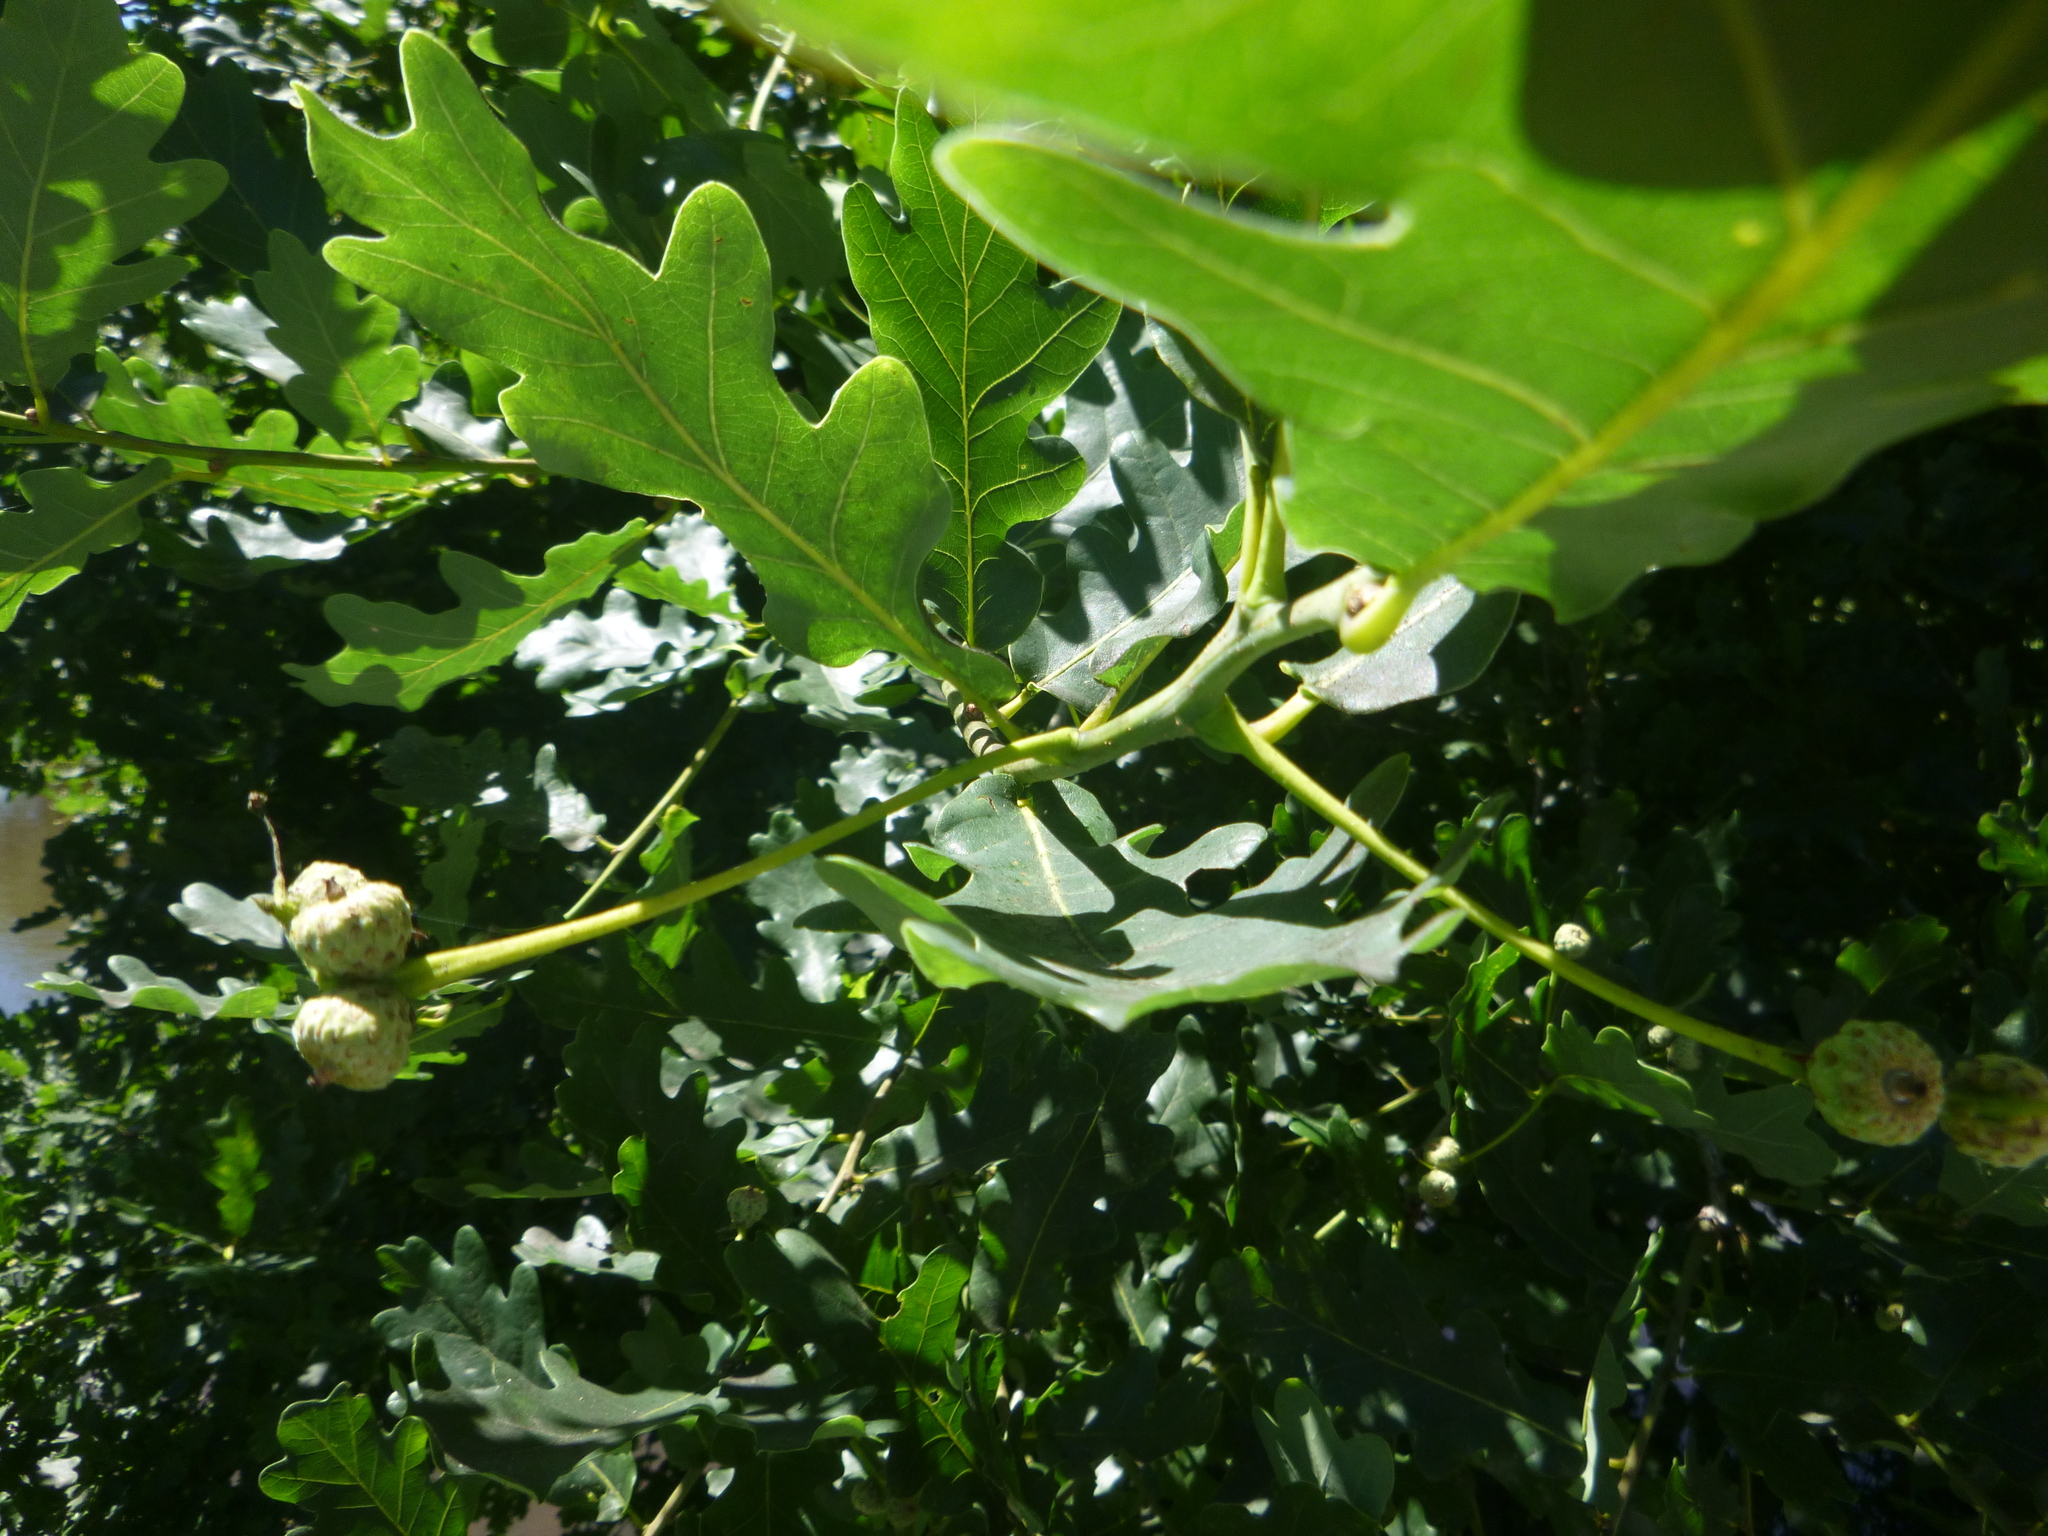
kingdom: Plantae
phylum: Tracheophyta
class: Magnoliopsida
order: Fagales
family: Fagaceae
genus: Quercus
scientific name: Quercus robur
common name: Pedunculate oak
